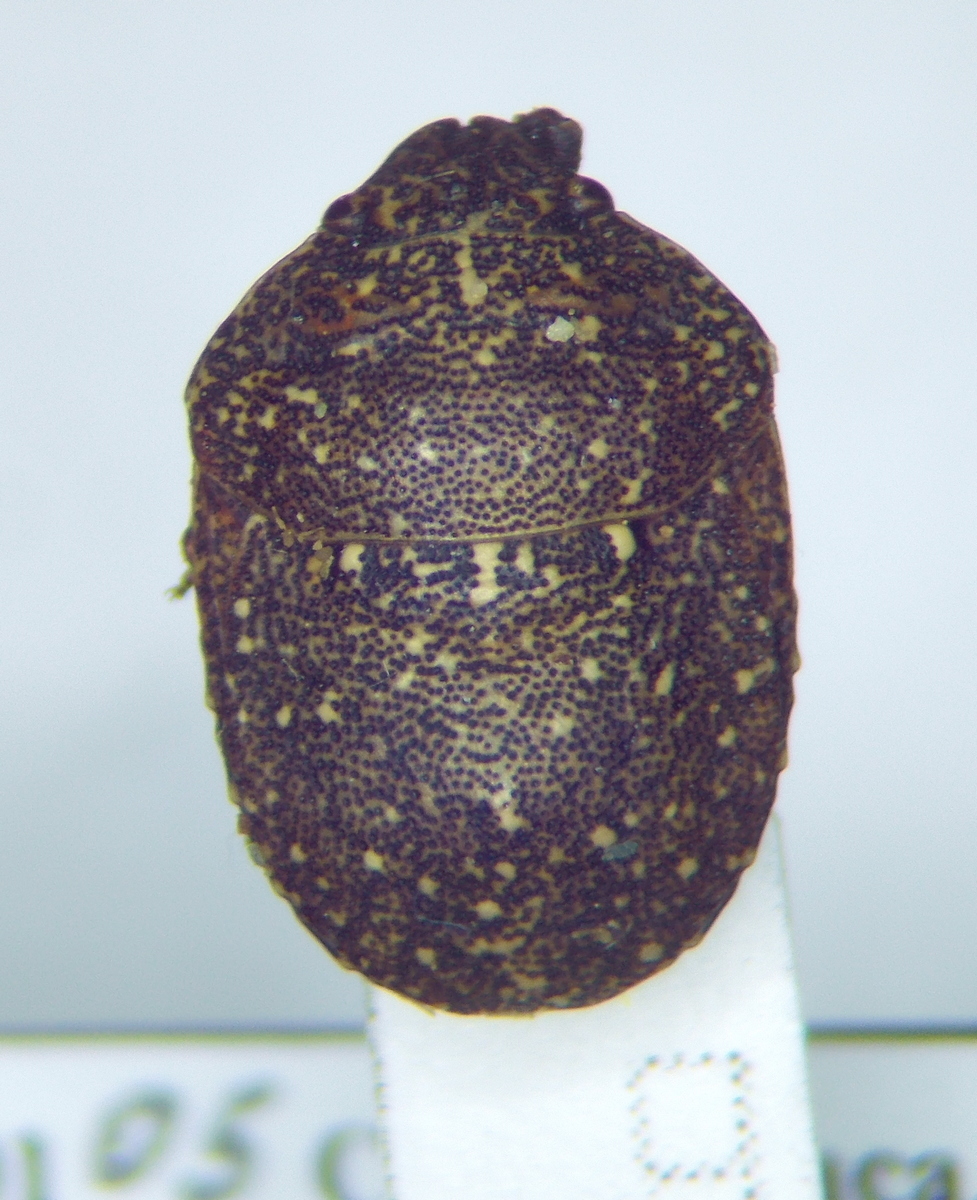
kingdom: Animalia
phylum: Arthropoda
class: Insecta
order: Hemiptera
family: Scutelleridae
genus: Psacasta
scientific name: Psacasta exanthematica
